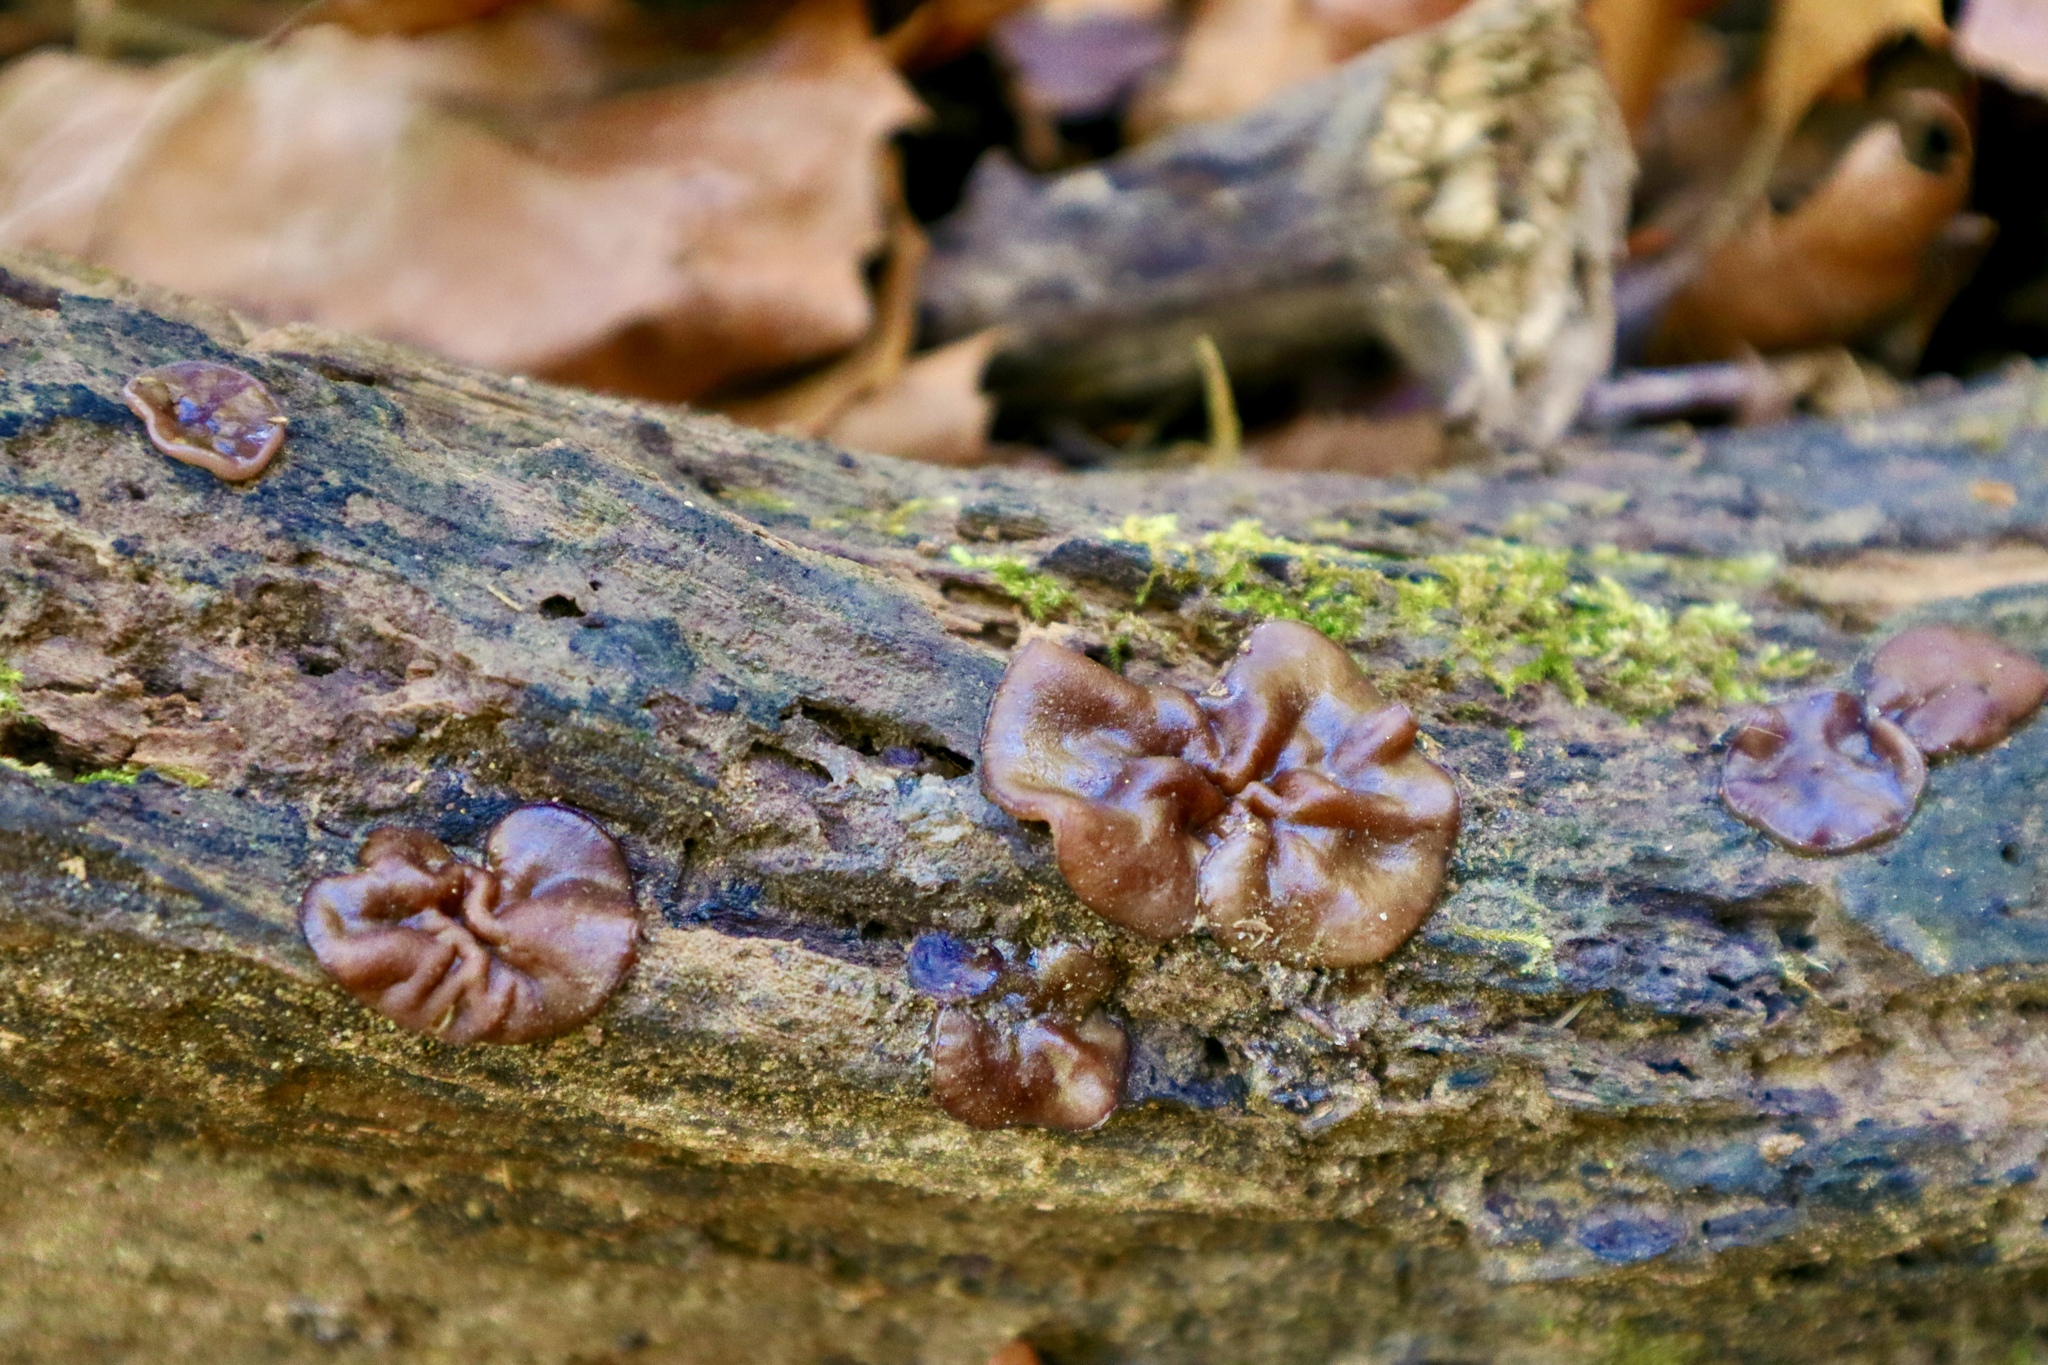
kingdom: Fungi
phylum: Ascomycota
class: Pezizomycetes
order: Pezizales
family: Pezizaceae
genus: Pachyella
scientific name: Pachyella clypeata
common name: Copper penny fungus
